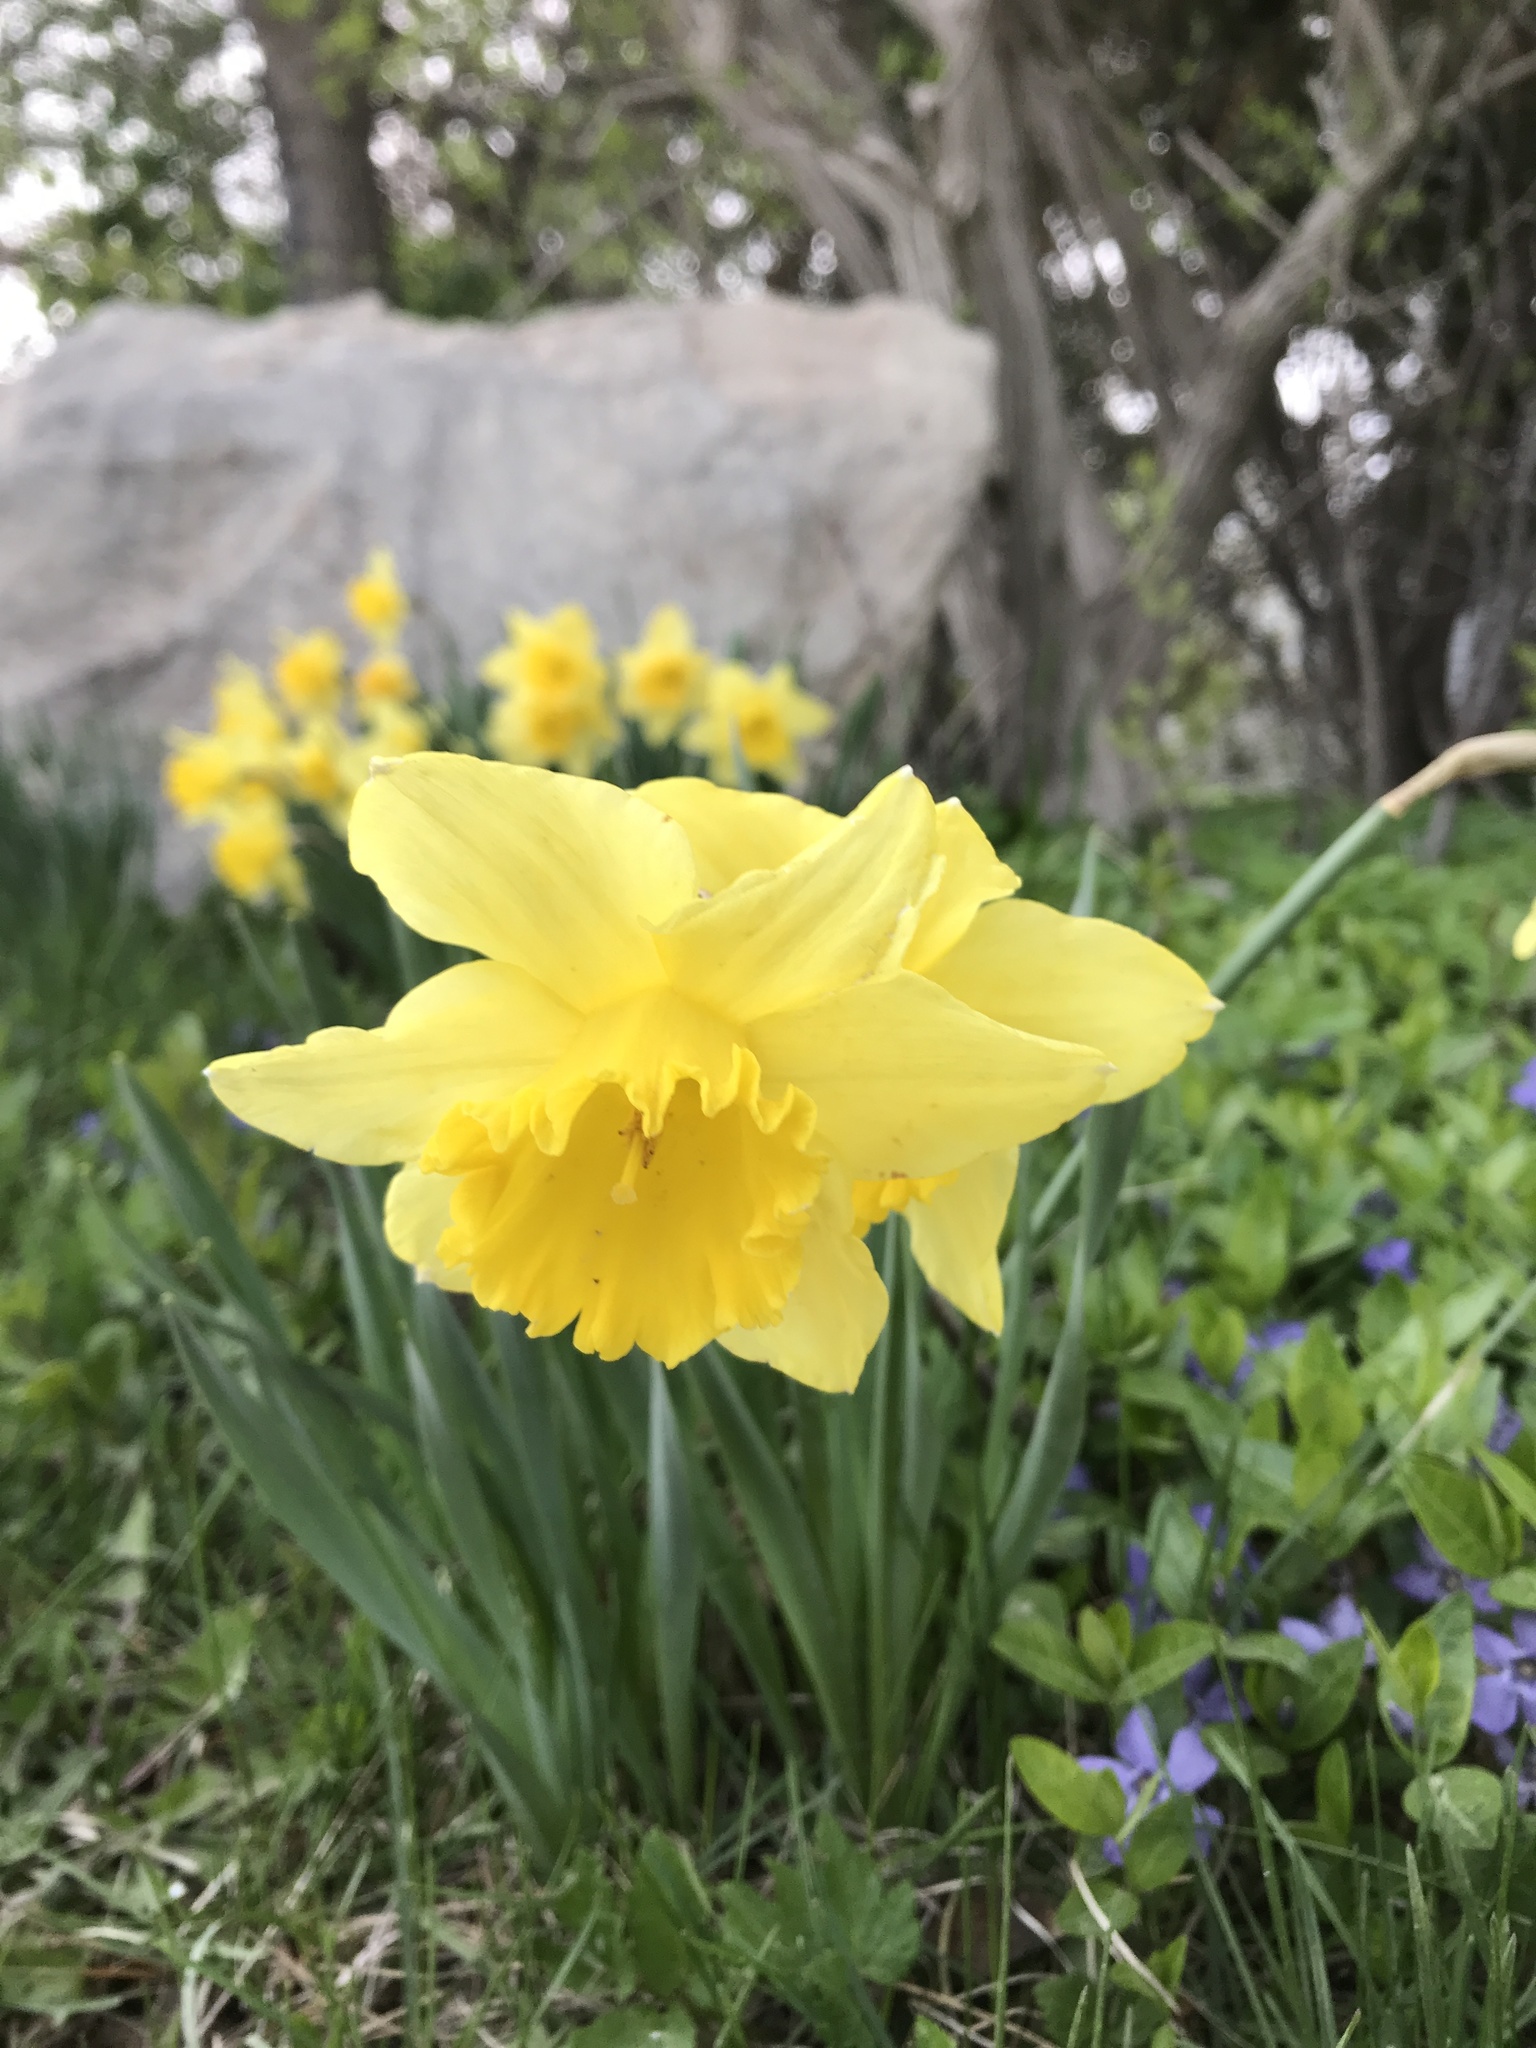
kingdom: Plantae
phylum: Tracheophyta
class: Liliopsida
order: Asparagales
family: Amaryllidaceae
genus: Narcissus
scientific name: Narcissus pseudonarcissus
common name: Daffodil
